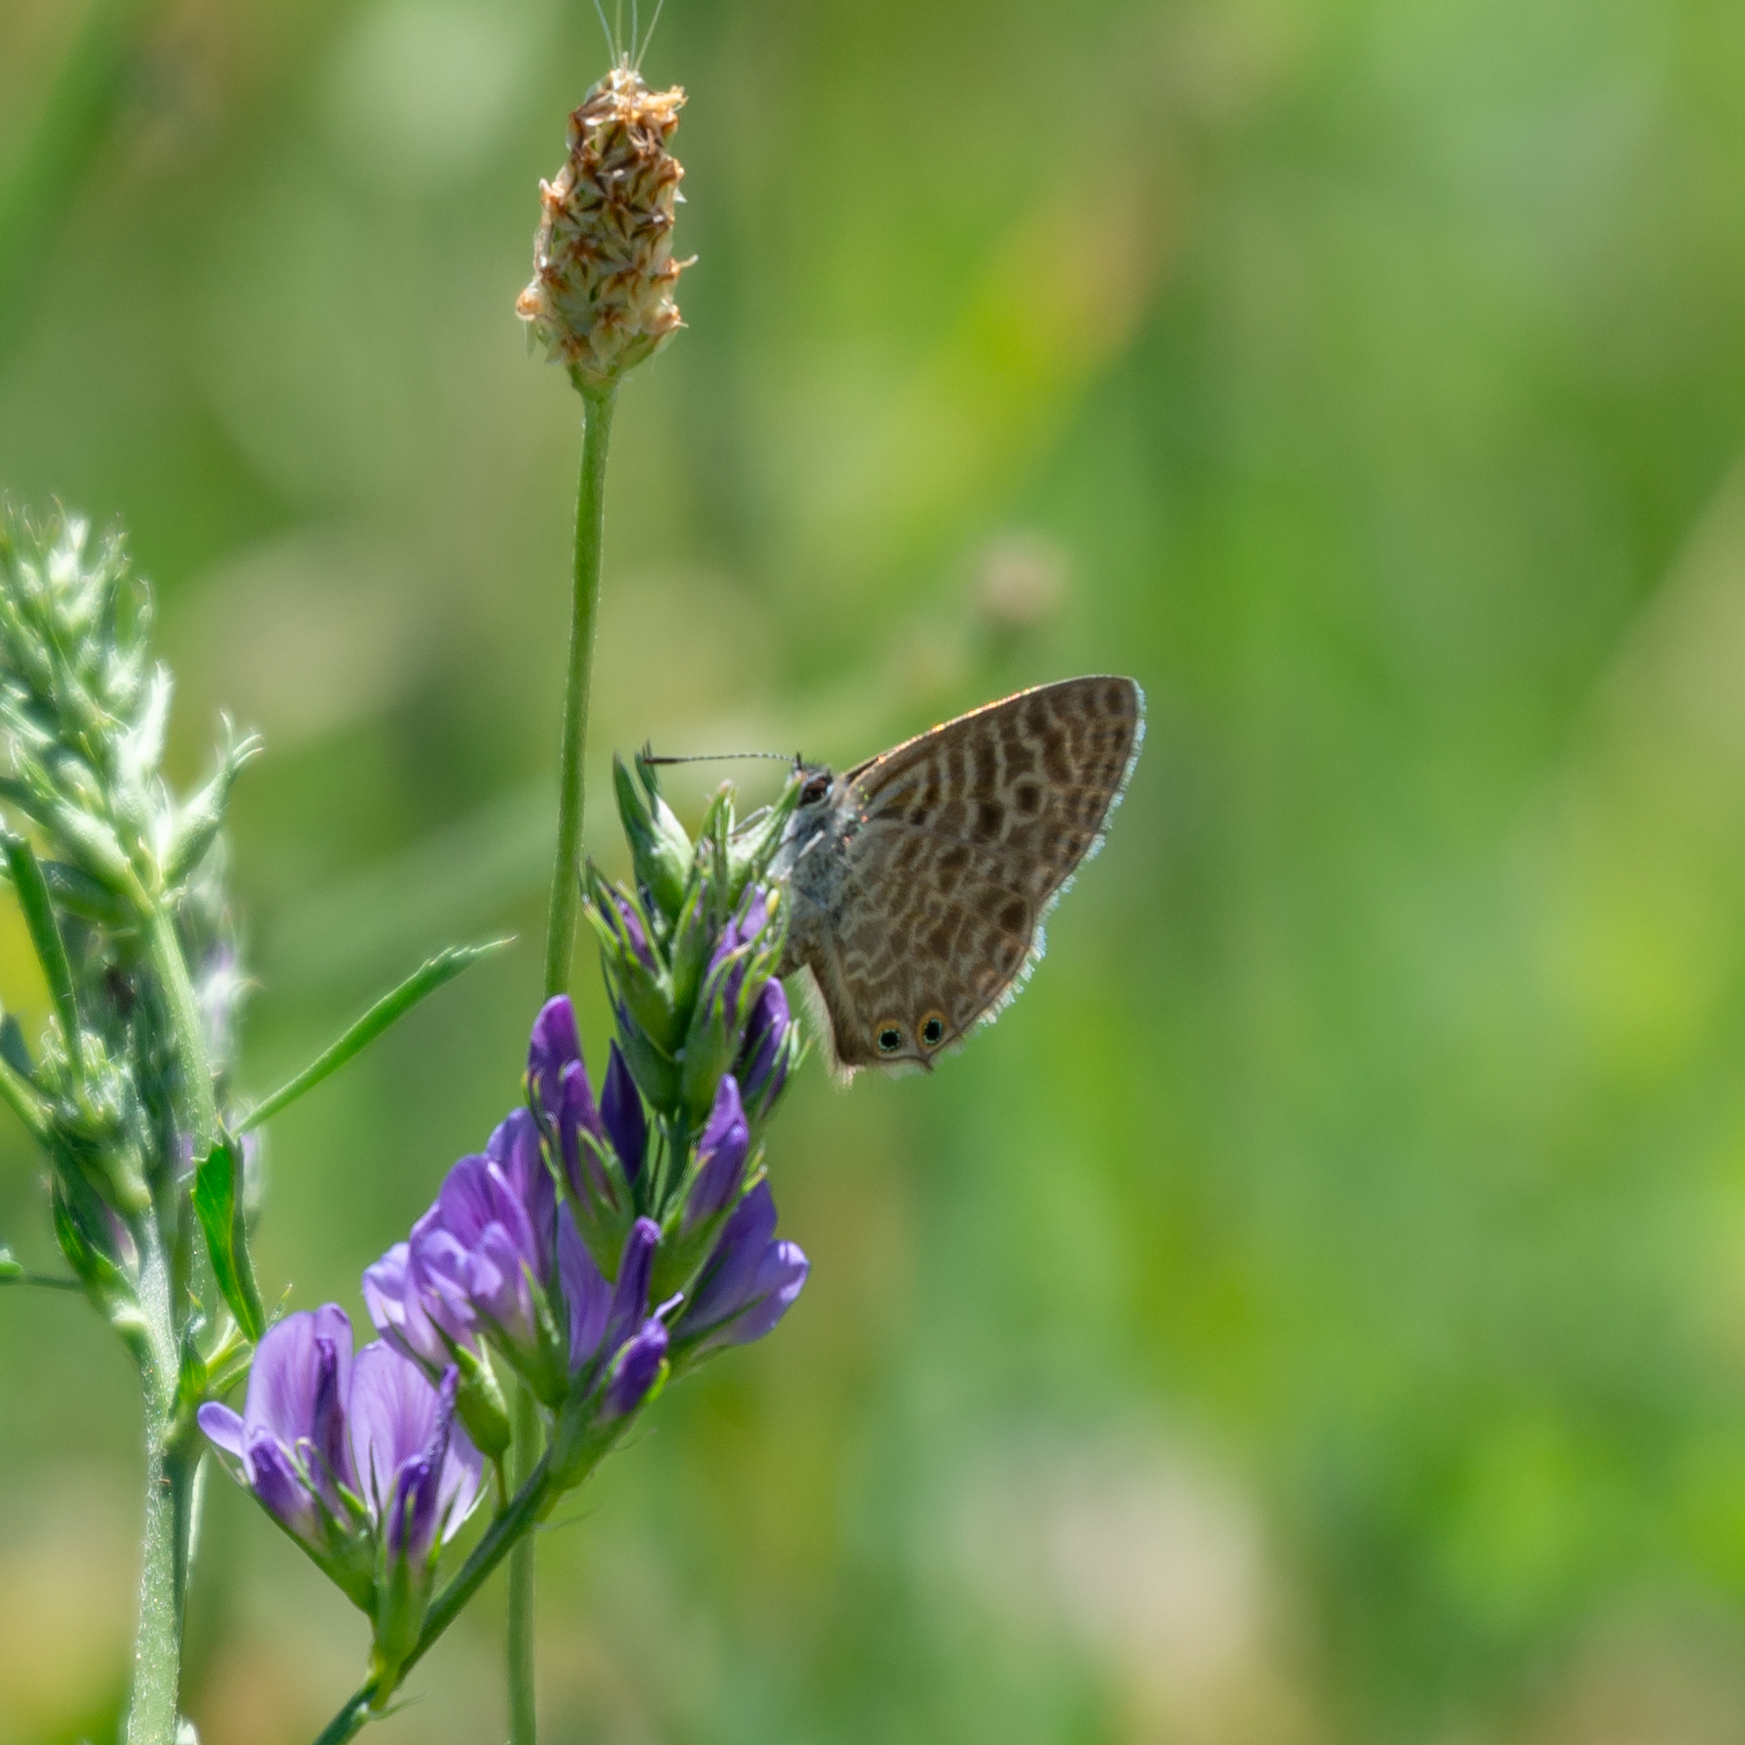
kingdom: Animalia
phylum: Arthropoda
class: Insecta
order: Lepidoptera
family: Lycaenidae
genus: Leptotes
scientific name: Leptotes pirithous
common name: Lang's short-tailed blue
